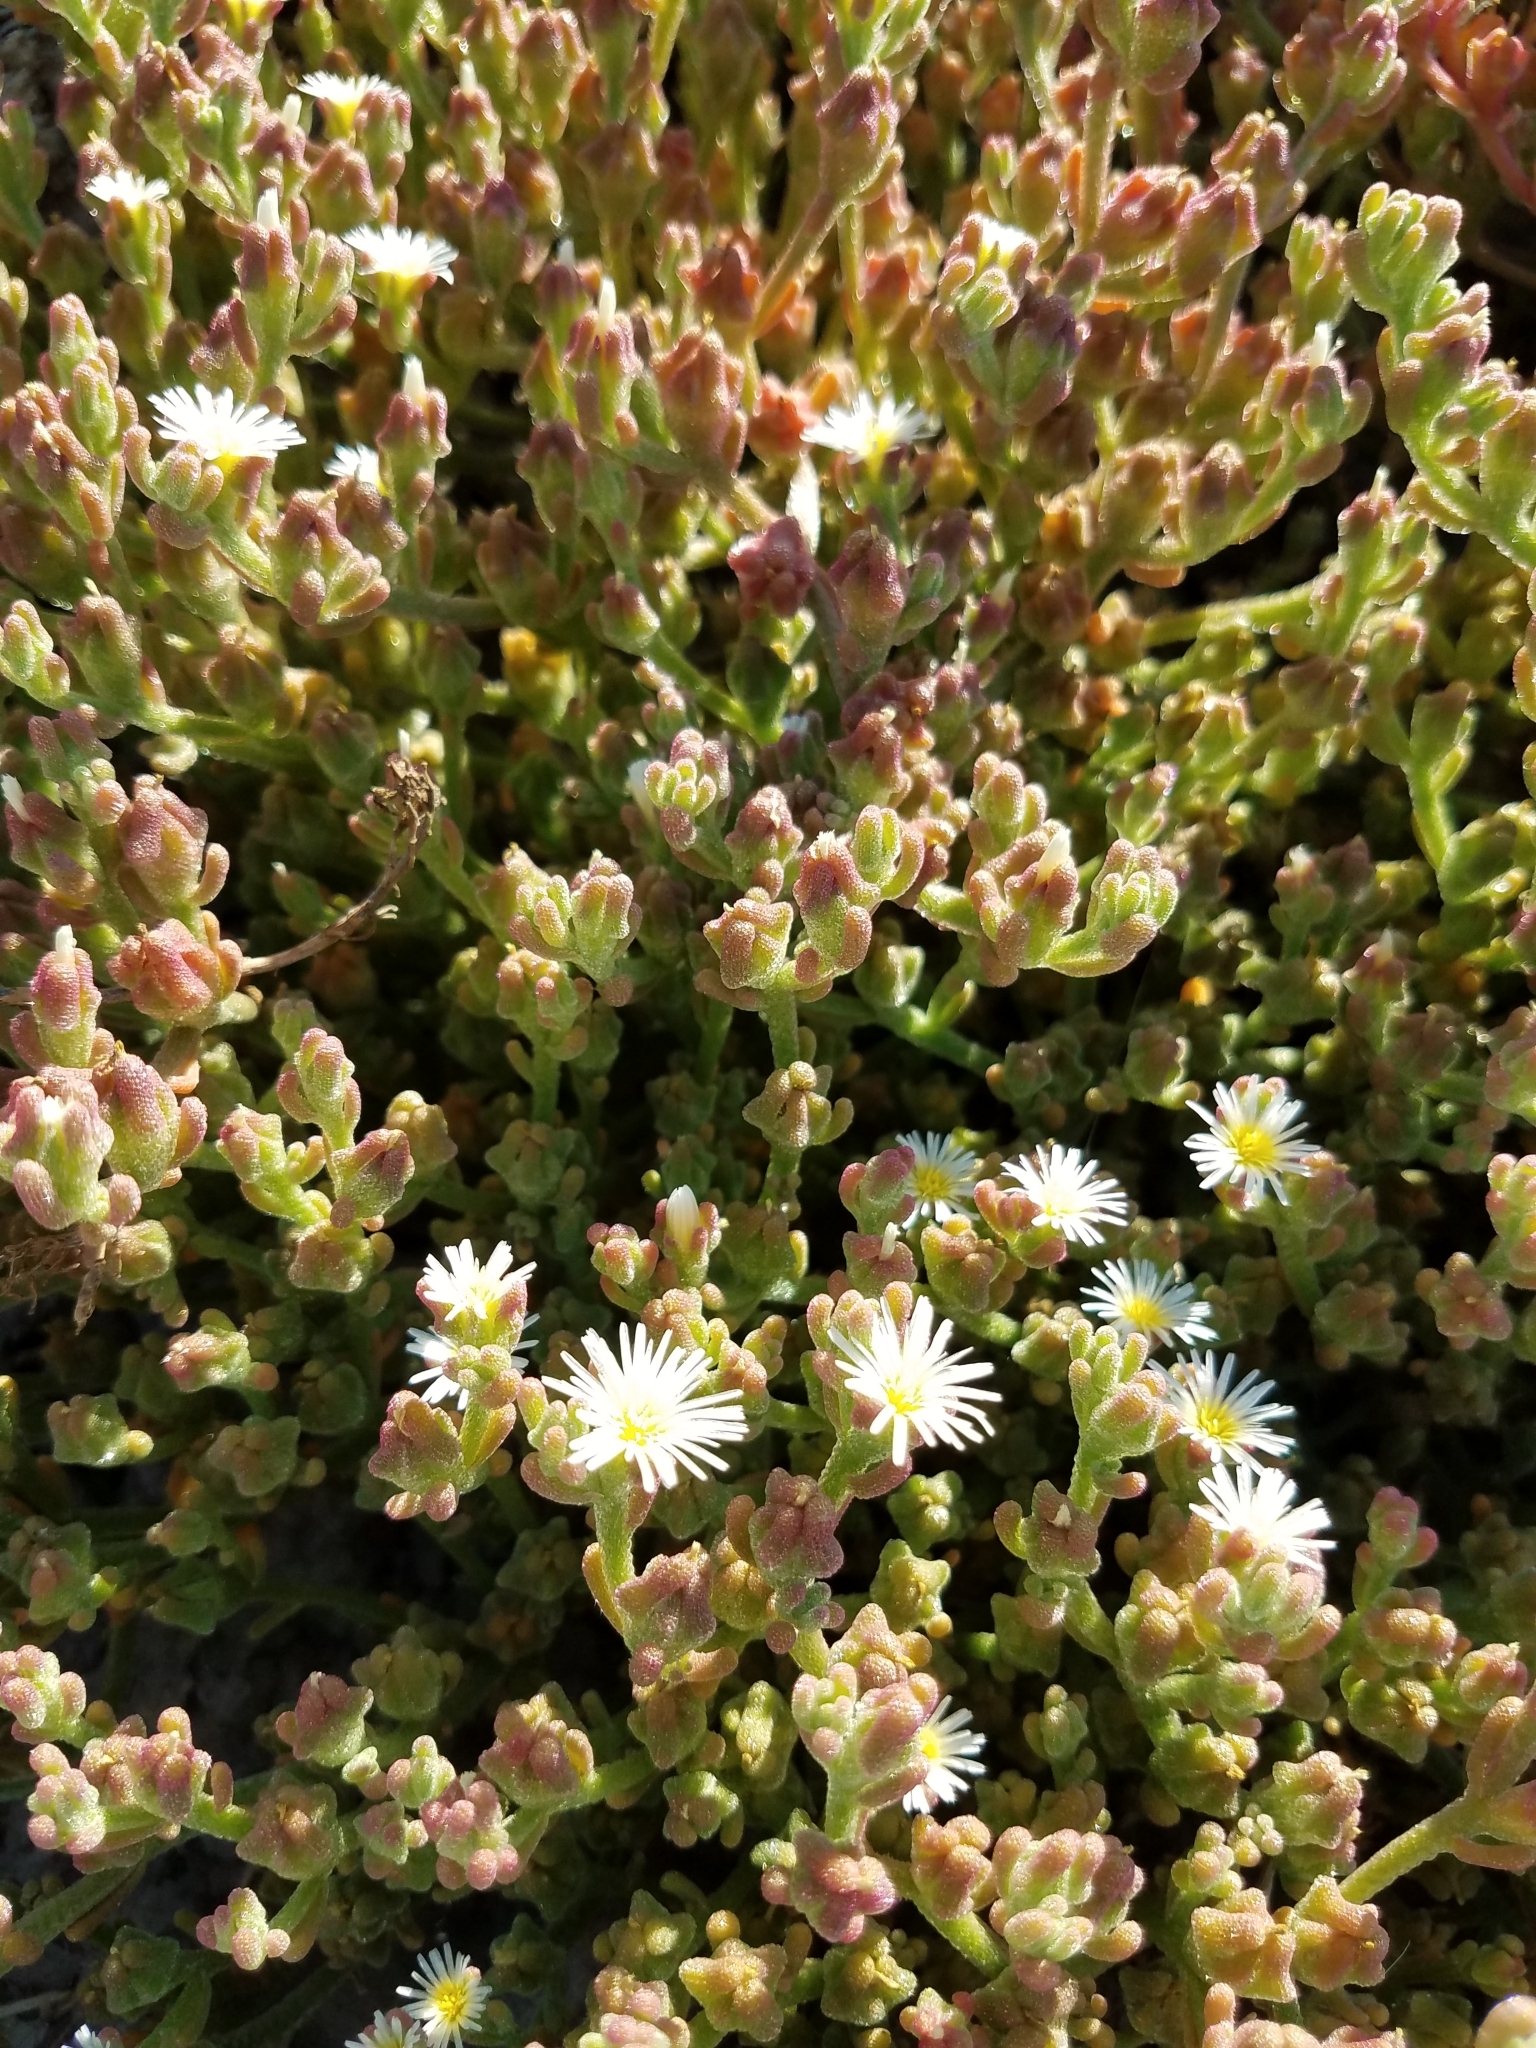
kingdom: Plantae
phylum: Tracheophyta
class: Magnoliopsida
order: Caryophyllales
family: Aizoaceae
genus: Mesembryanthemum
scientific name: Mesembryanthemum nodiflorum
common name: Slenderleaf iceplant
